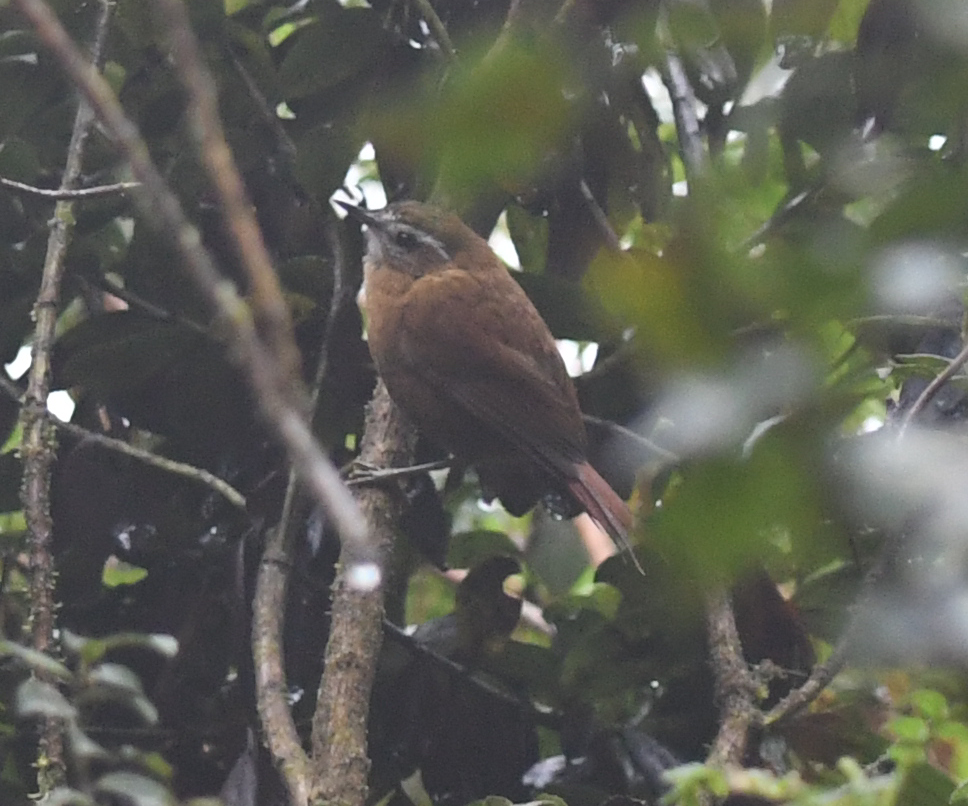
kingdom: Animalia
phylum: Chordata
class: Aves
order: Passeriformes
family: Furnariidae
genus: Hellmayrea
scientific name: Hellmayrea gularis
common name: White-browed spinetail
